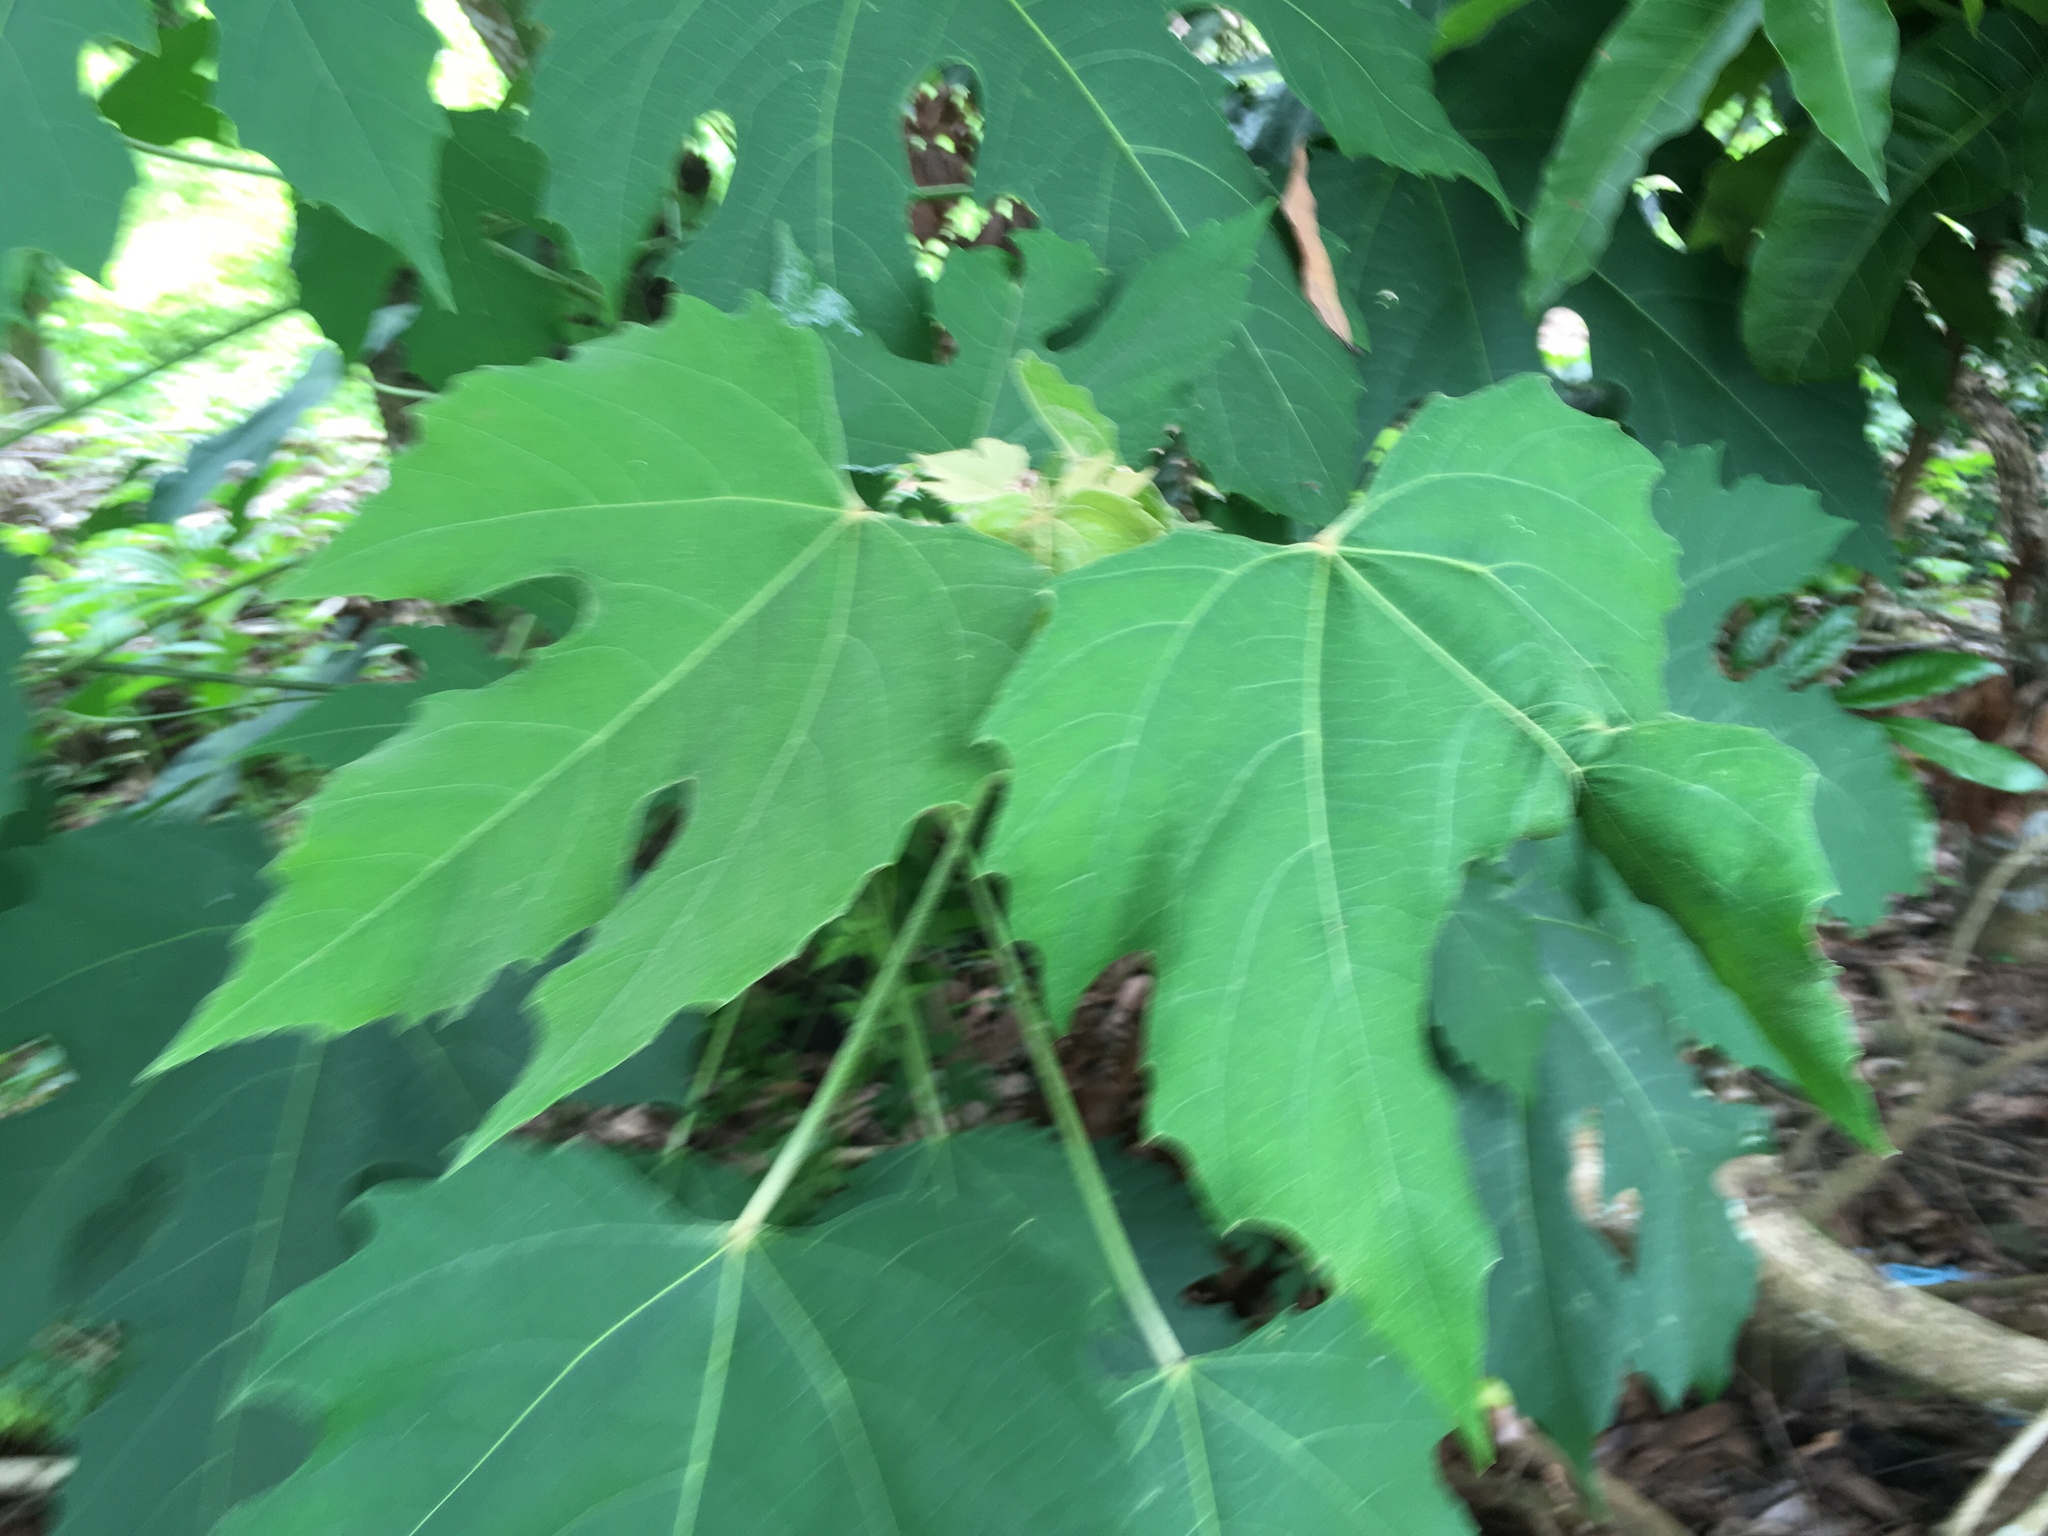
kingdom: Plantae
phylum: Tracheophyta
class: Magnoliopsida
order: Malpighiales
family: Euphorbiaceae
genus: Melanolepis
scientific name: Melanolepis multiglandulosa
